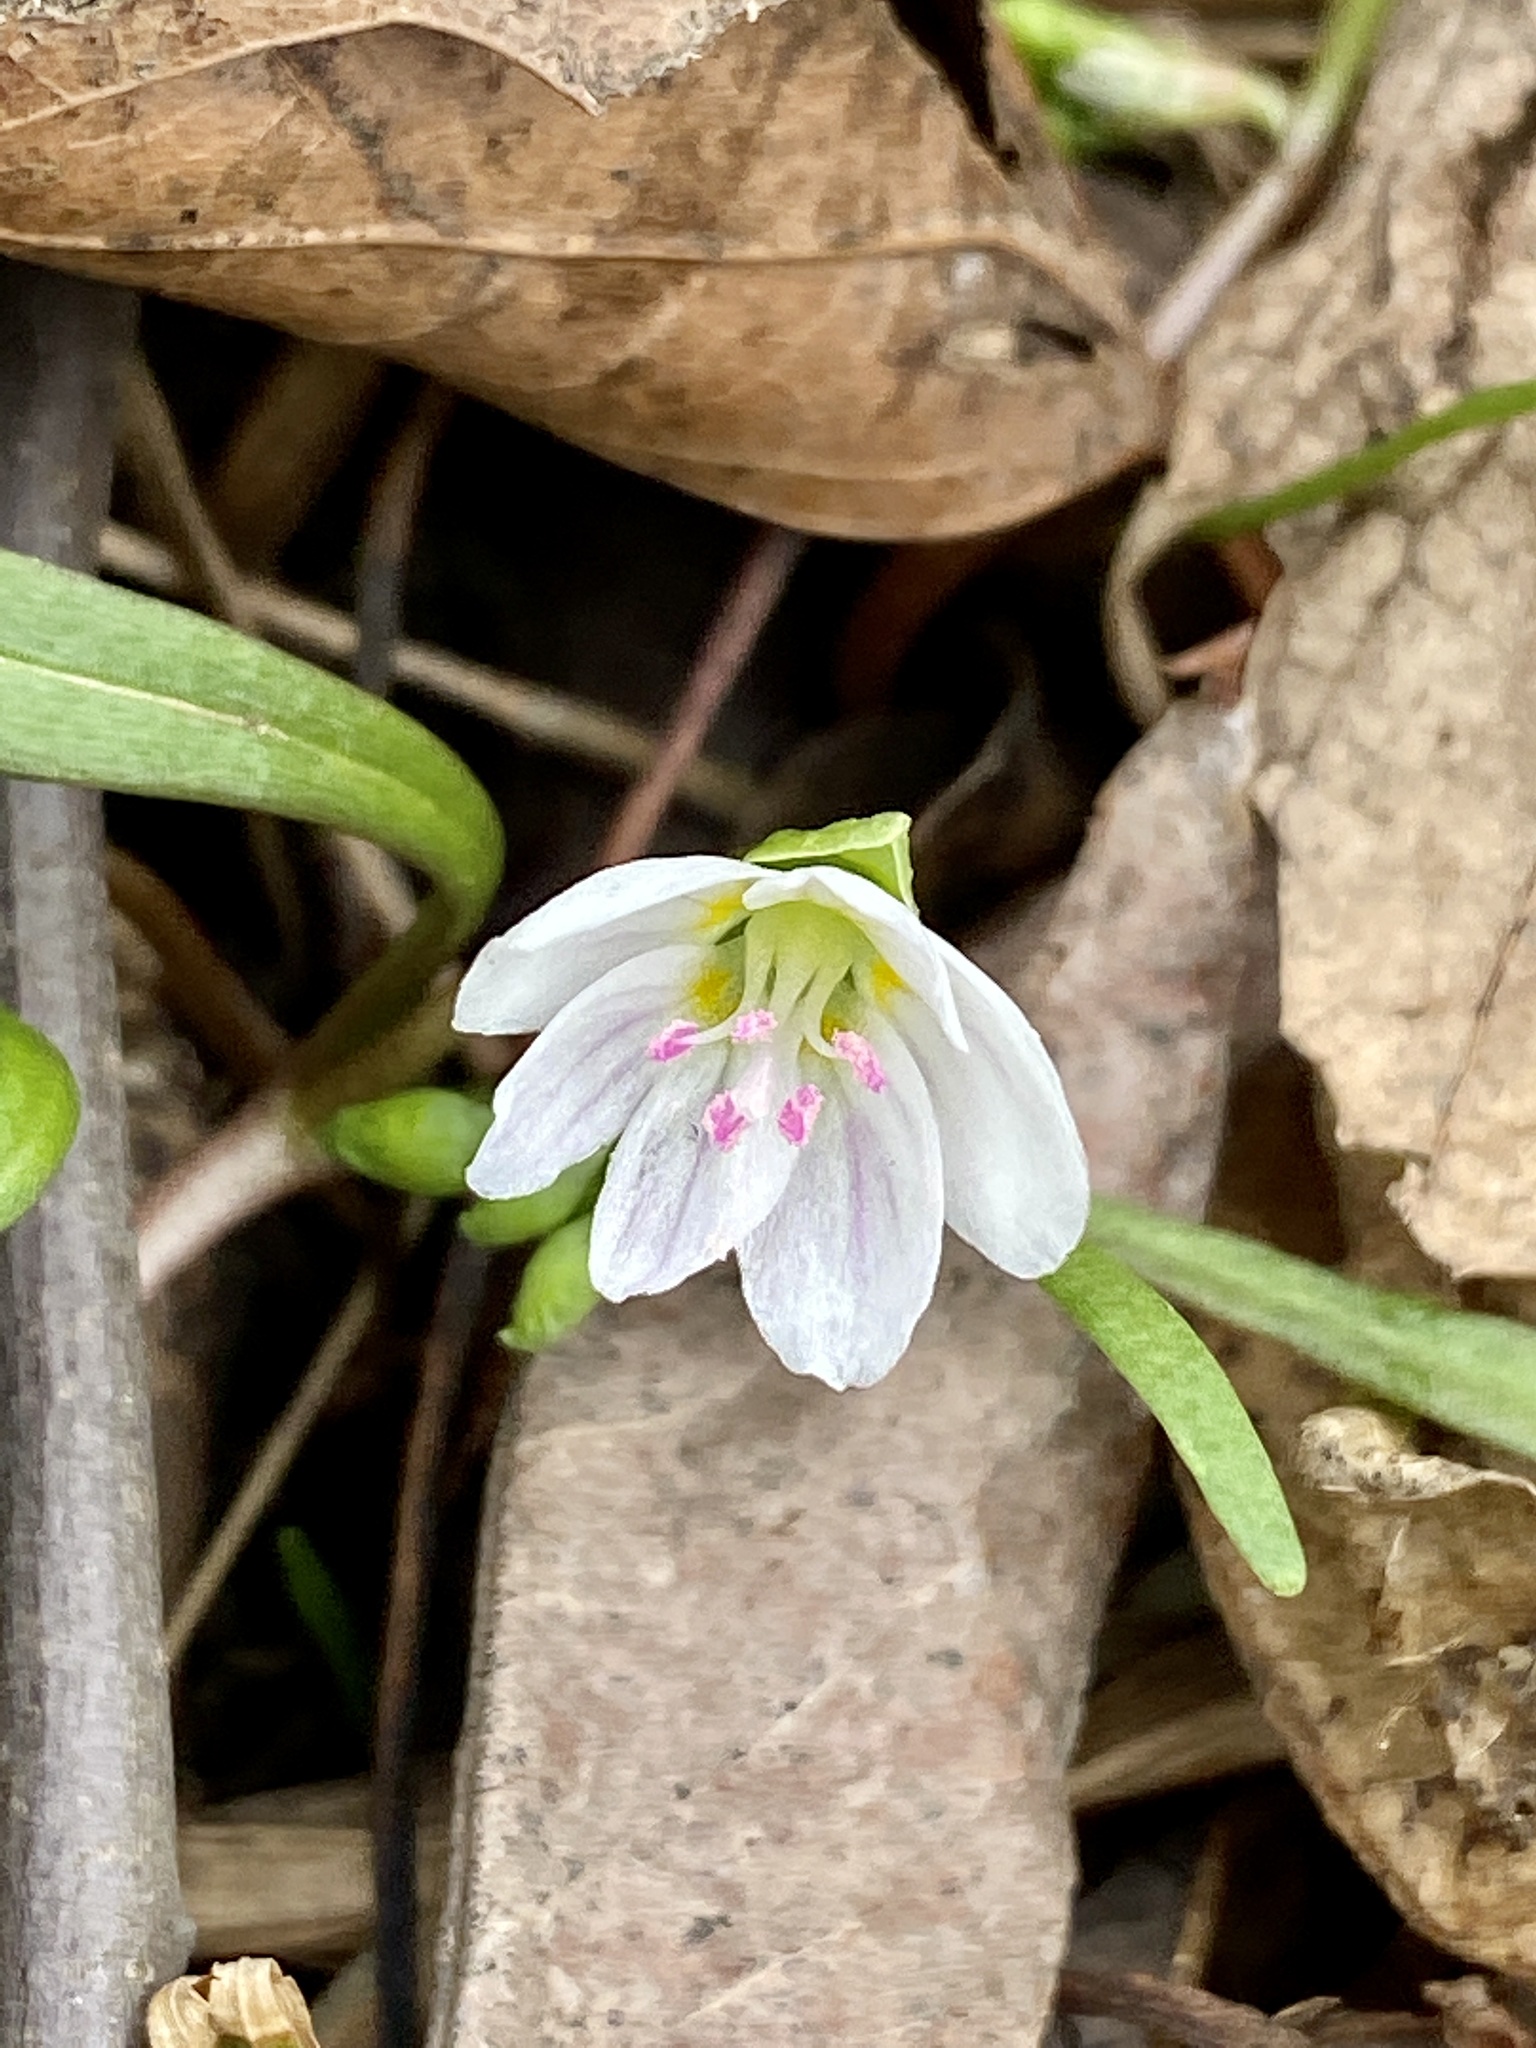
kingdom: Plantae
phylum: Tracheophyta
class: Magnoliopsida
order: Caryophyllales
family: Montiaceae
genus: Claytonia
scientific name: Claytonia virginica
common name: Virginia springbeauty
